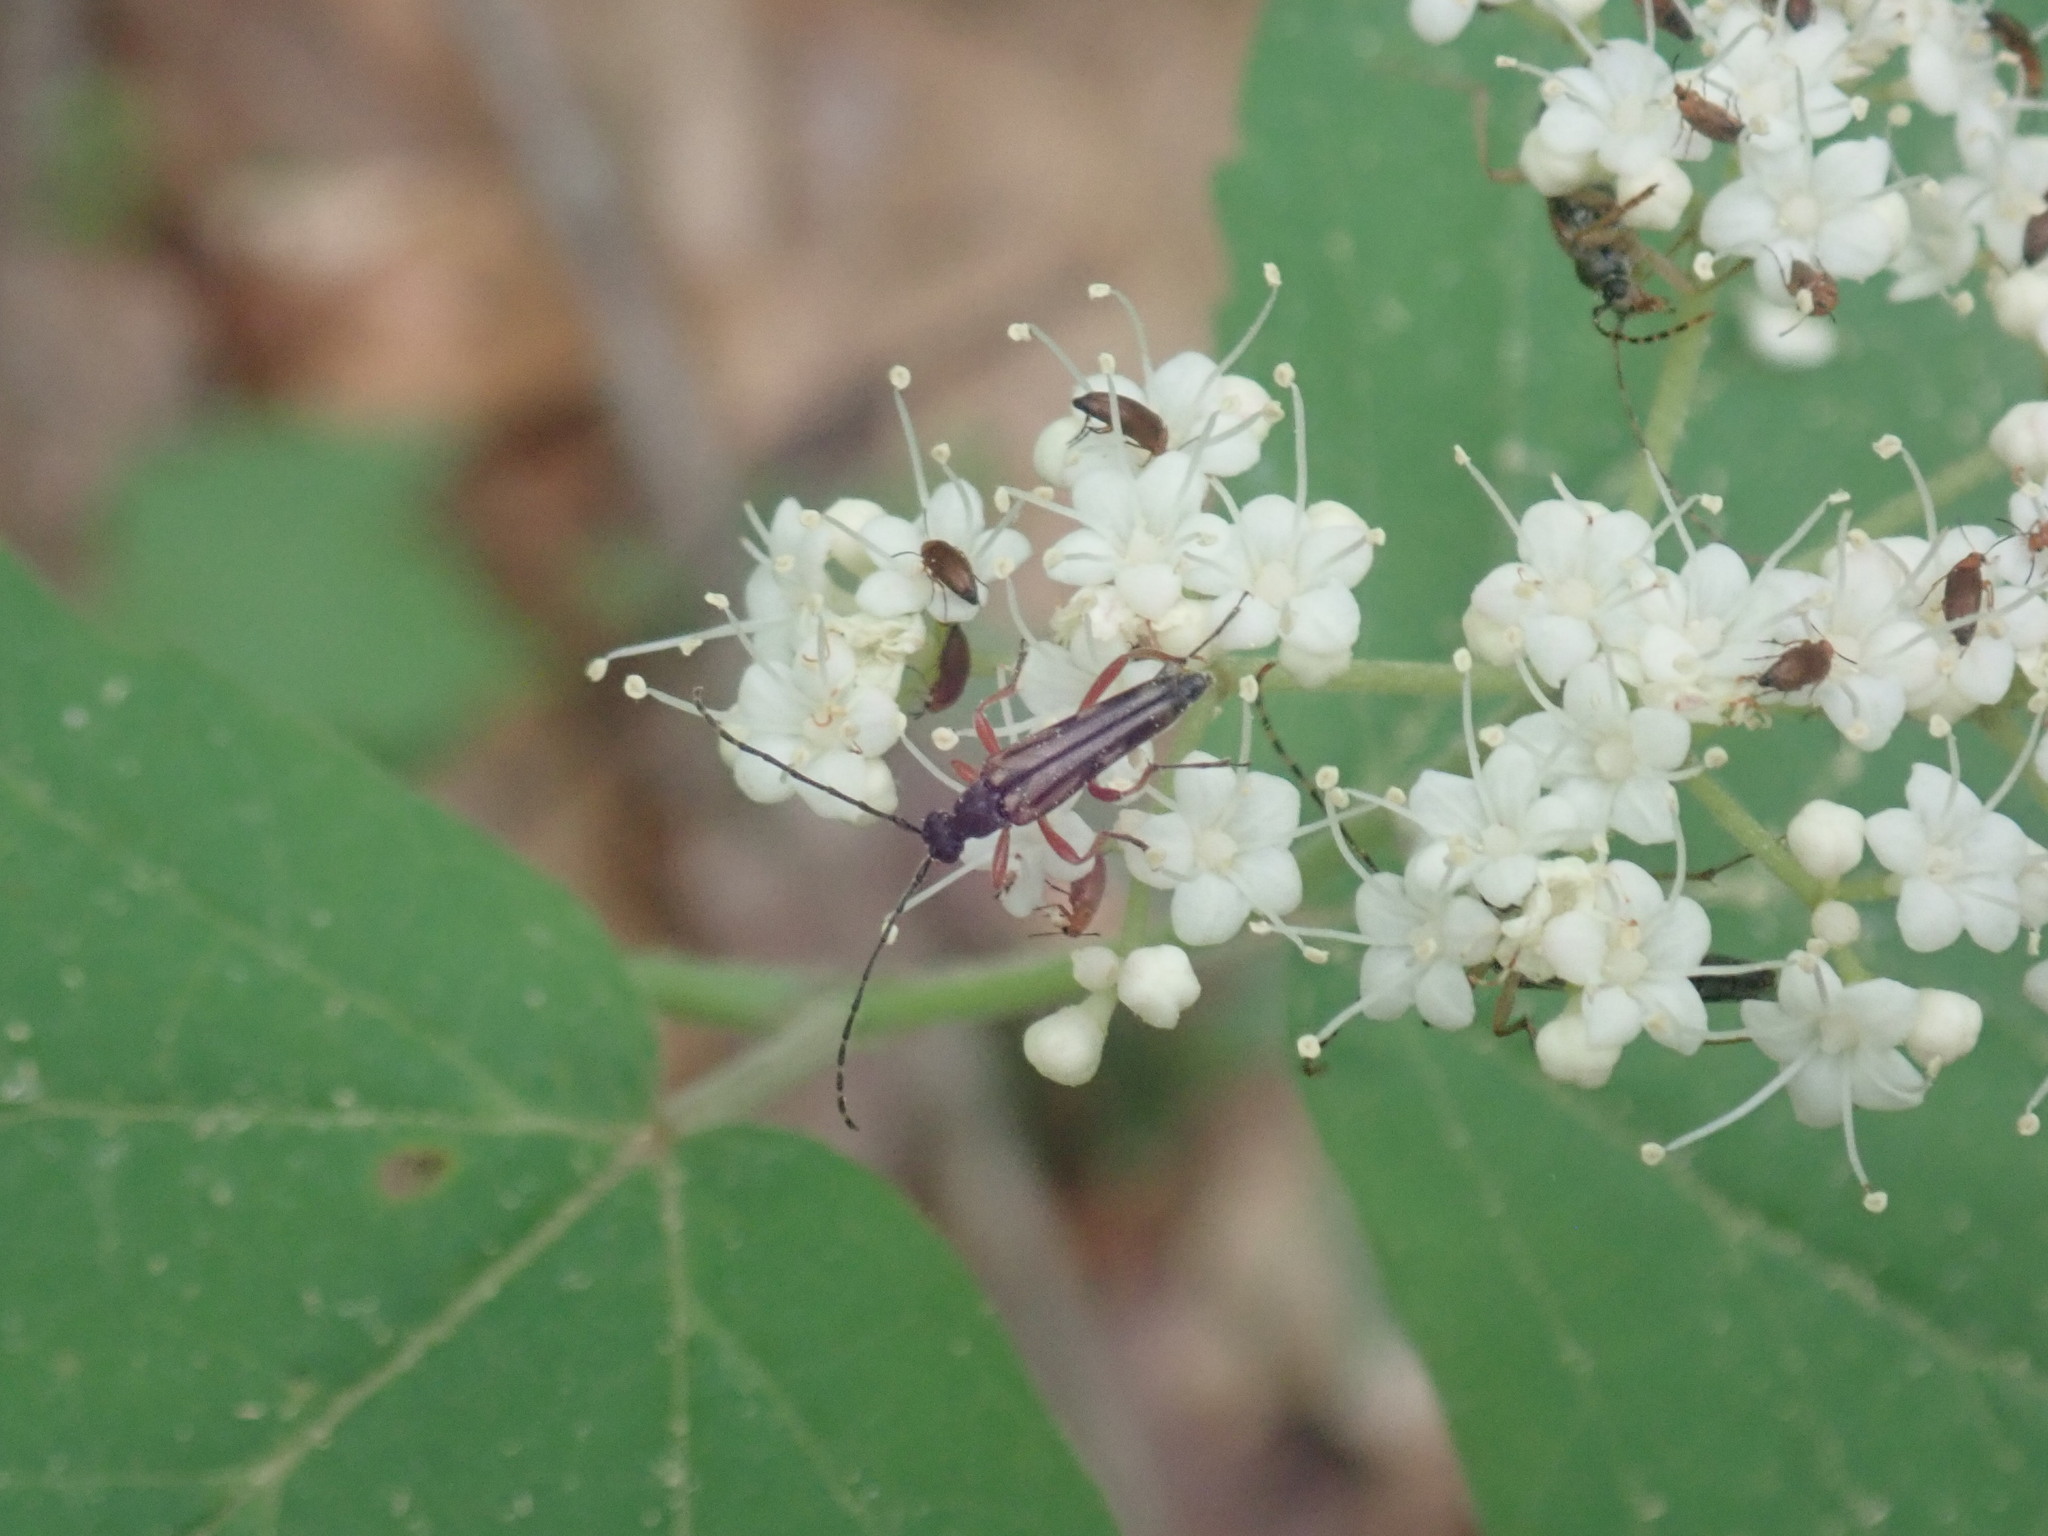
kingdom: Animalia
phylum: Arthropoda
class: Insecta
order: Coleoptera
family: Cerambycidae
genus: Analeptura
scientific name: Analeptura lineola
